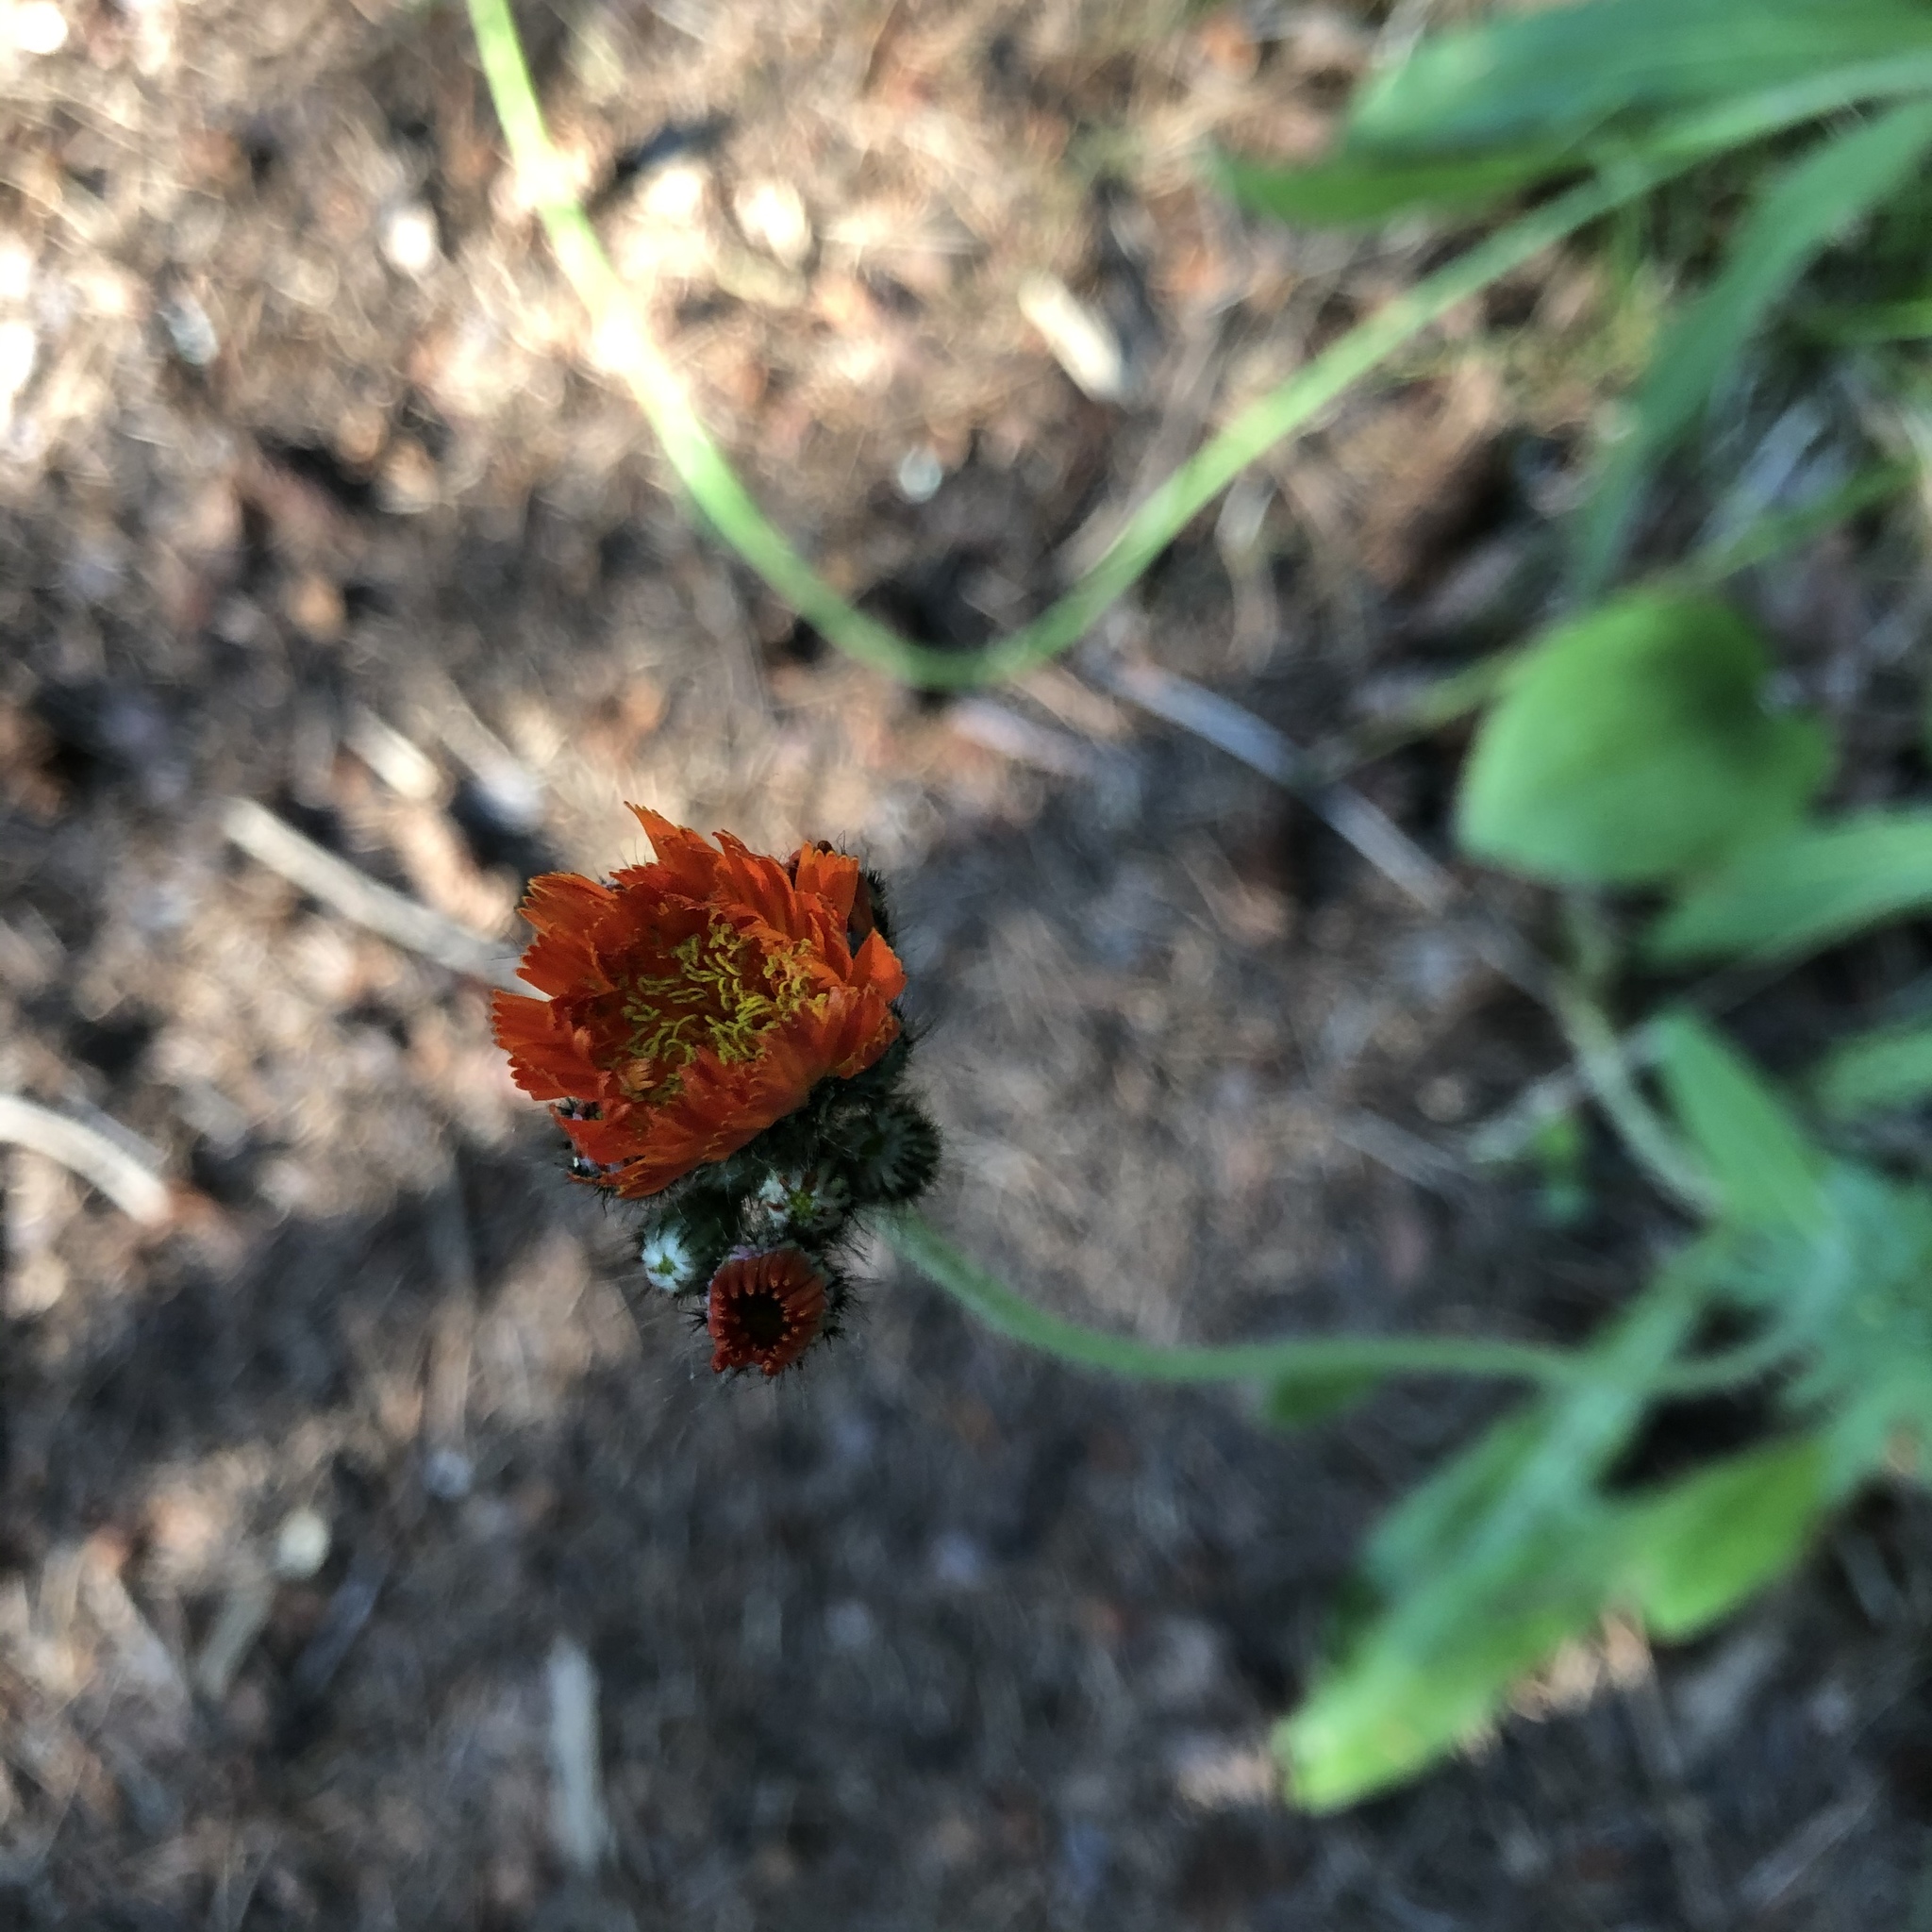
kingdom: Plantae
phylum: Tracheophyta
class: Magnoliopsida
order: Asterales
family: Asteraceae
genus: Pilosella
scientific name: Pilosella aurantiaca
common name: Fox-and-cubs
